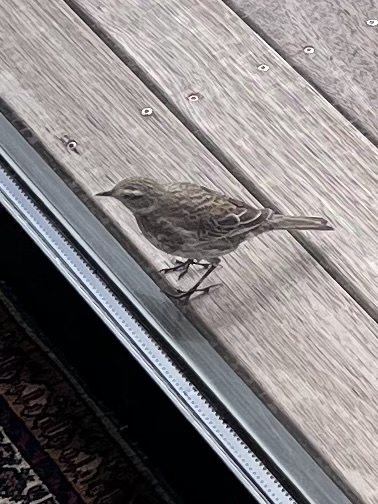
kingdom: Animalia
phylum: Chordata
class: Aves
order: Passeriformes
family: Motacillidae
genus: Anthus
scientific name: Anthus novaeseelandiae
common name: New zealand pipit
